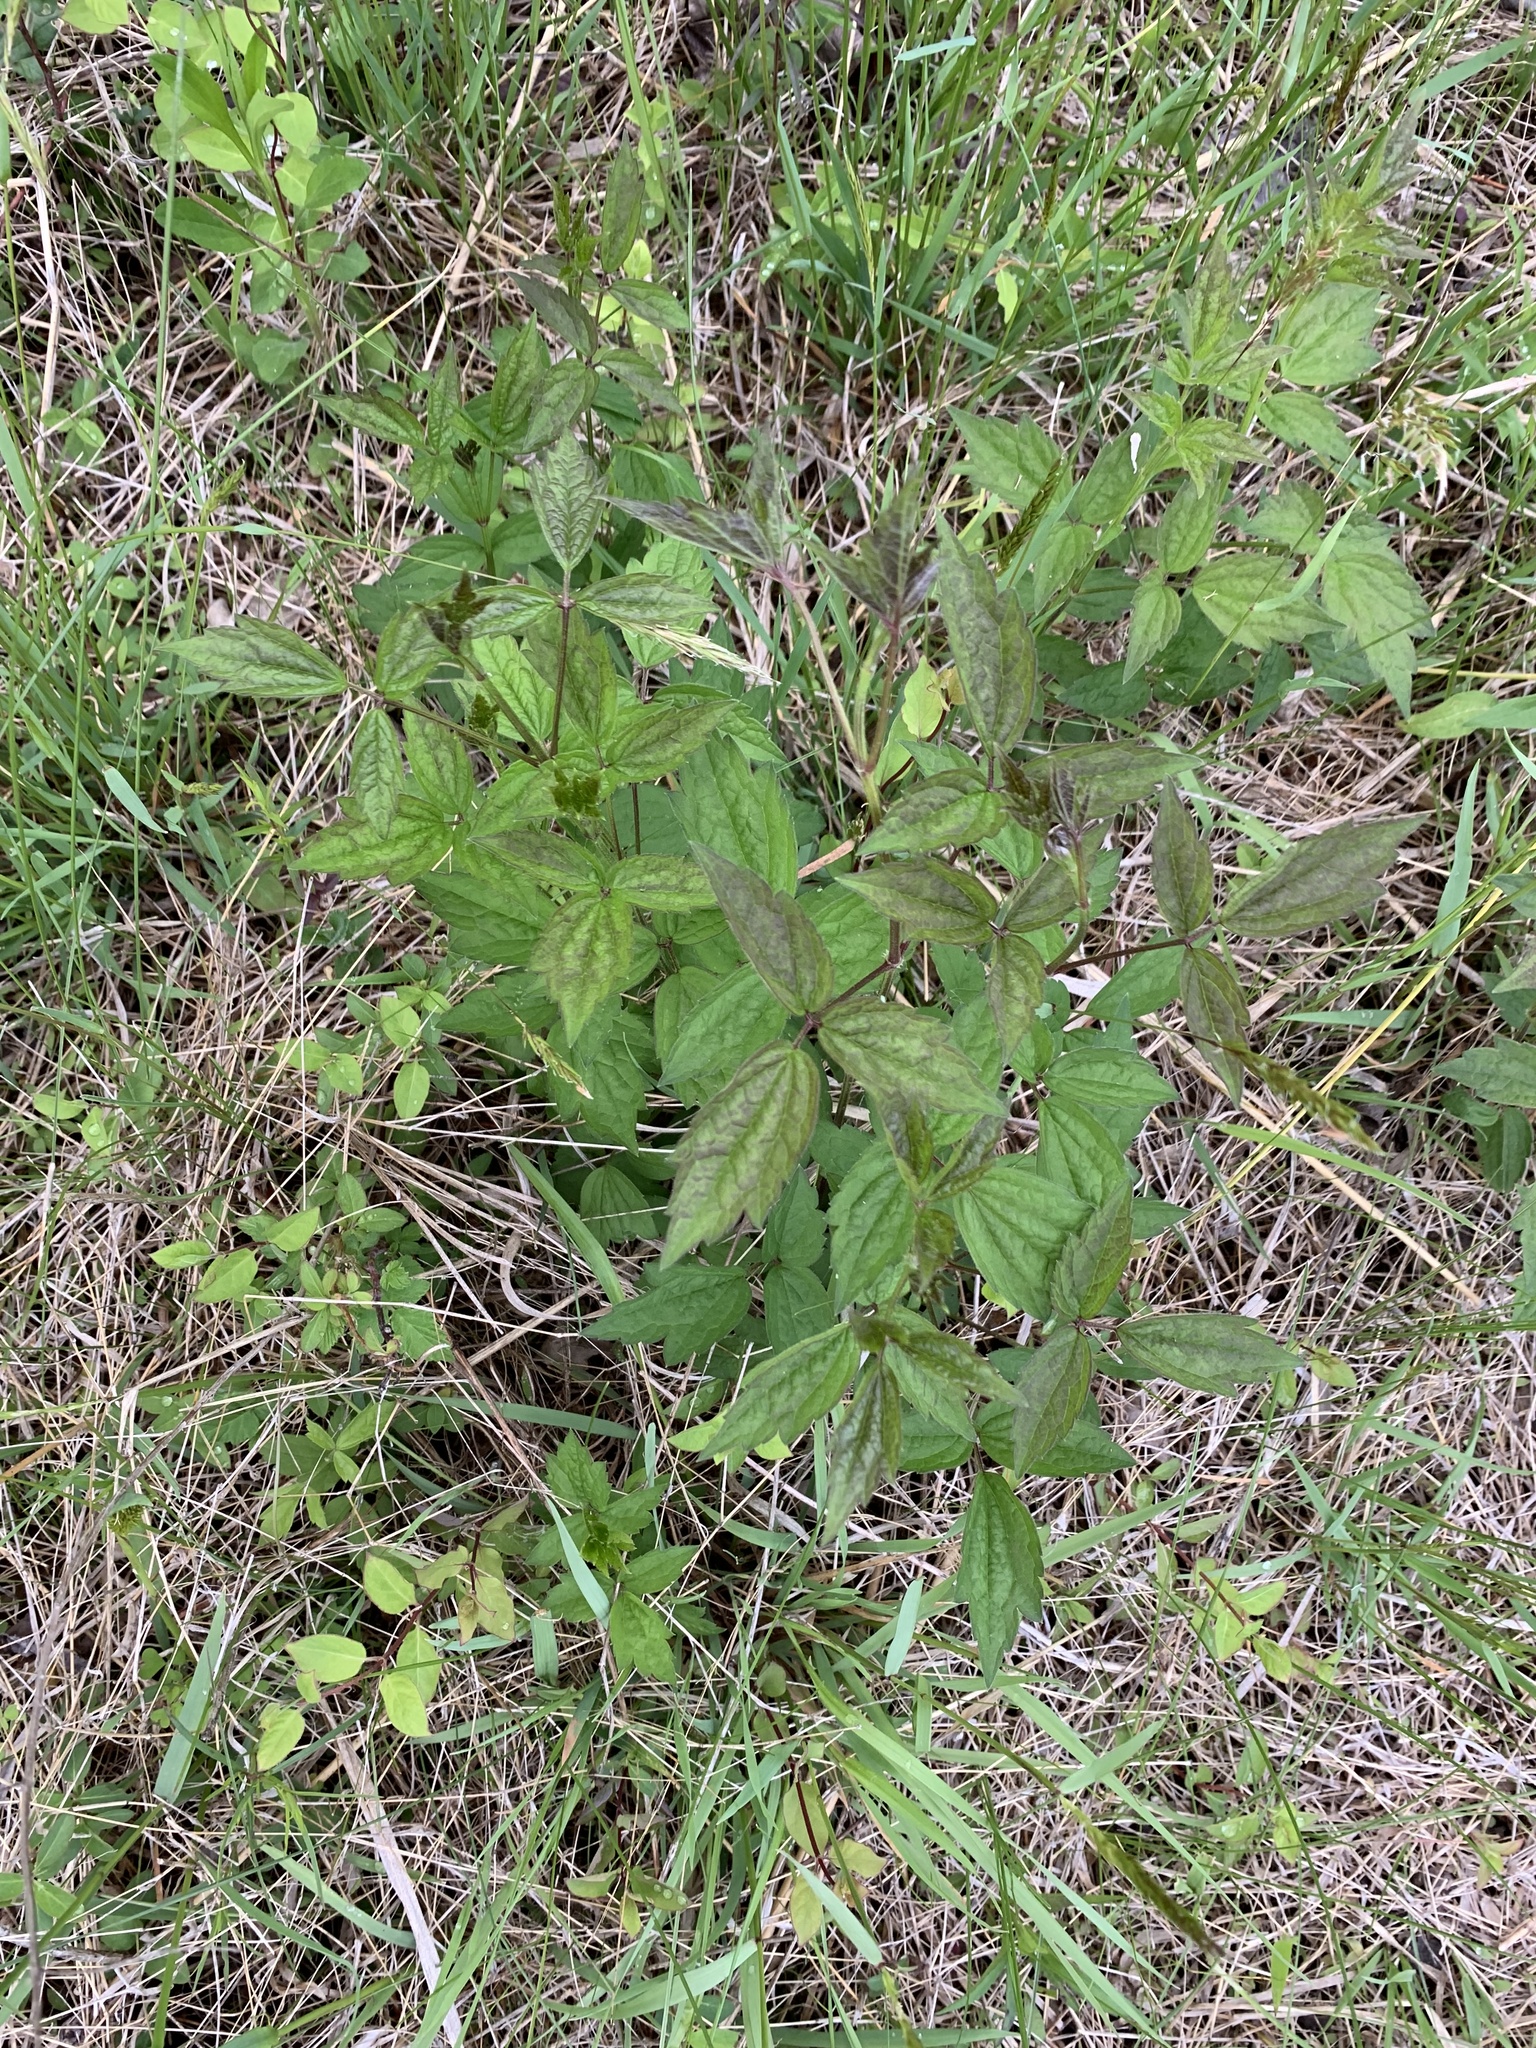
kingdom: Plantae
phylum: Tracheophyta
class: Magnoliopsida
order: Ranunculales
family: Ranunculaceae
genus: Clematis
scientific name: Clematis virginiana
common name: Virgin's-bower
